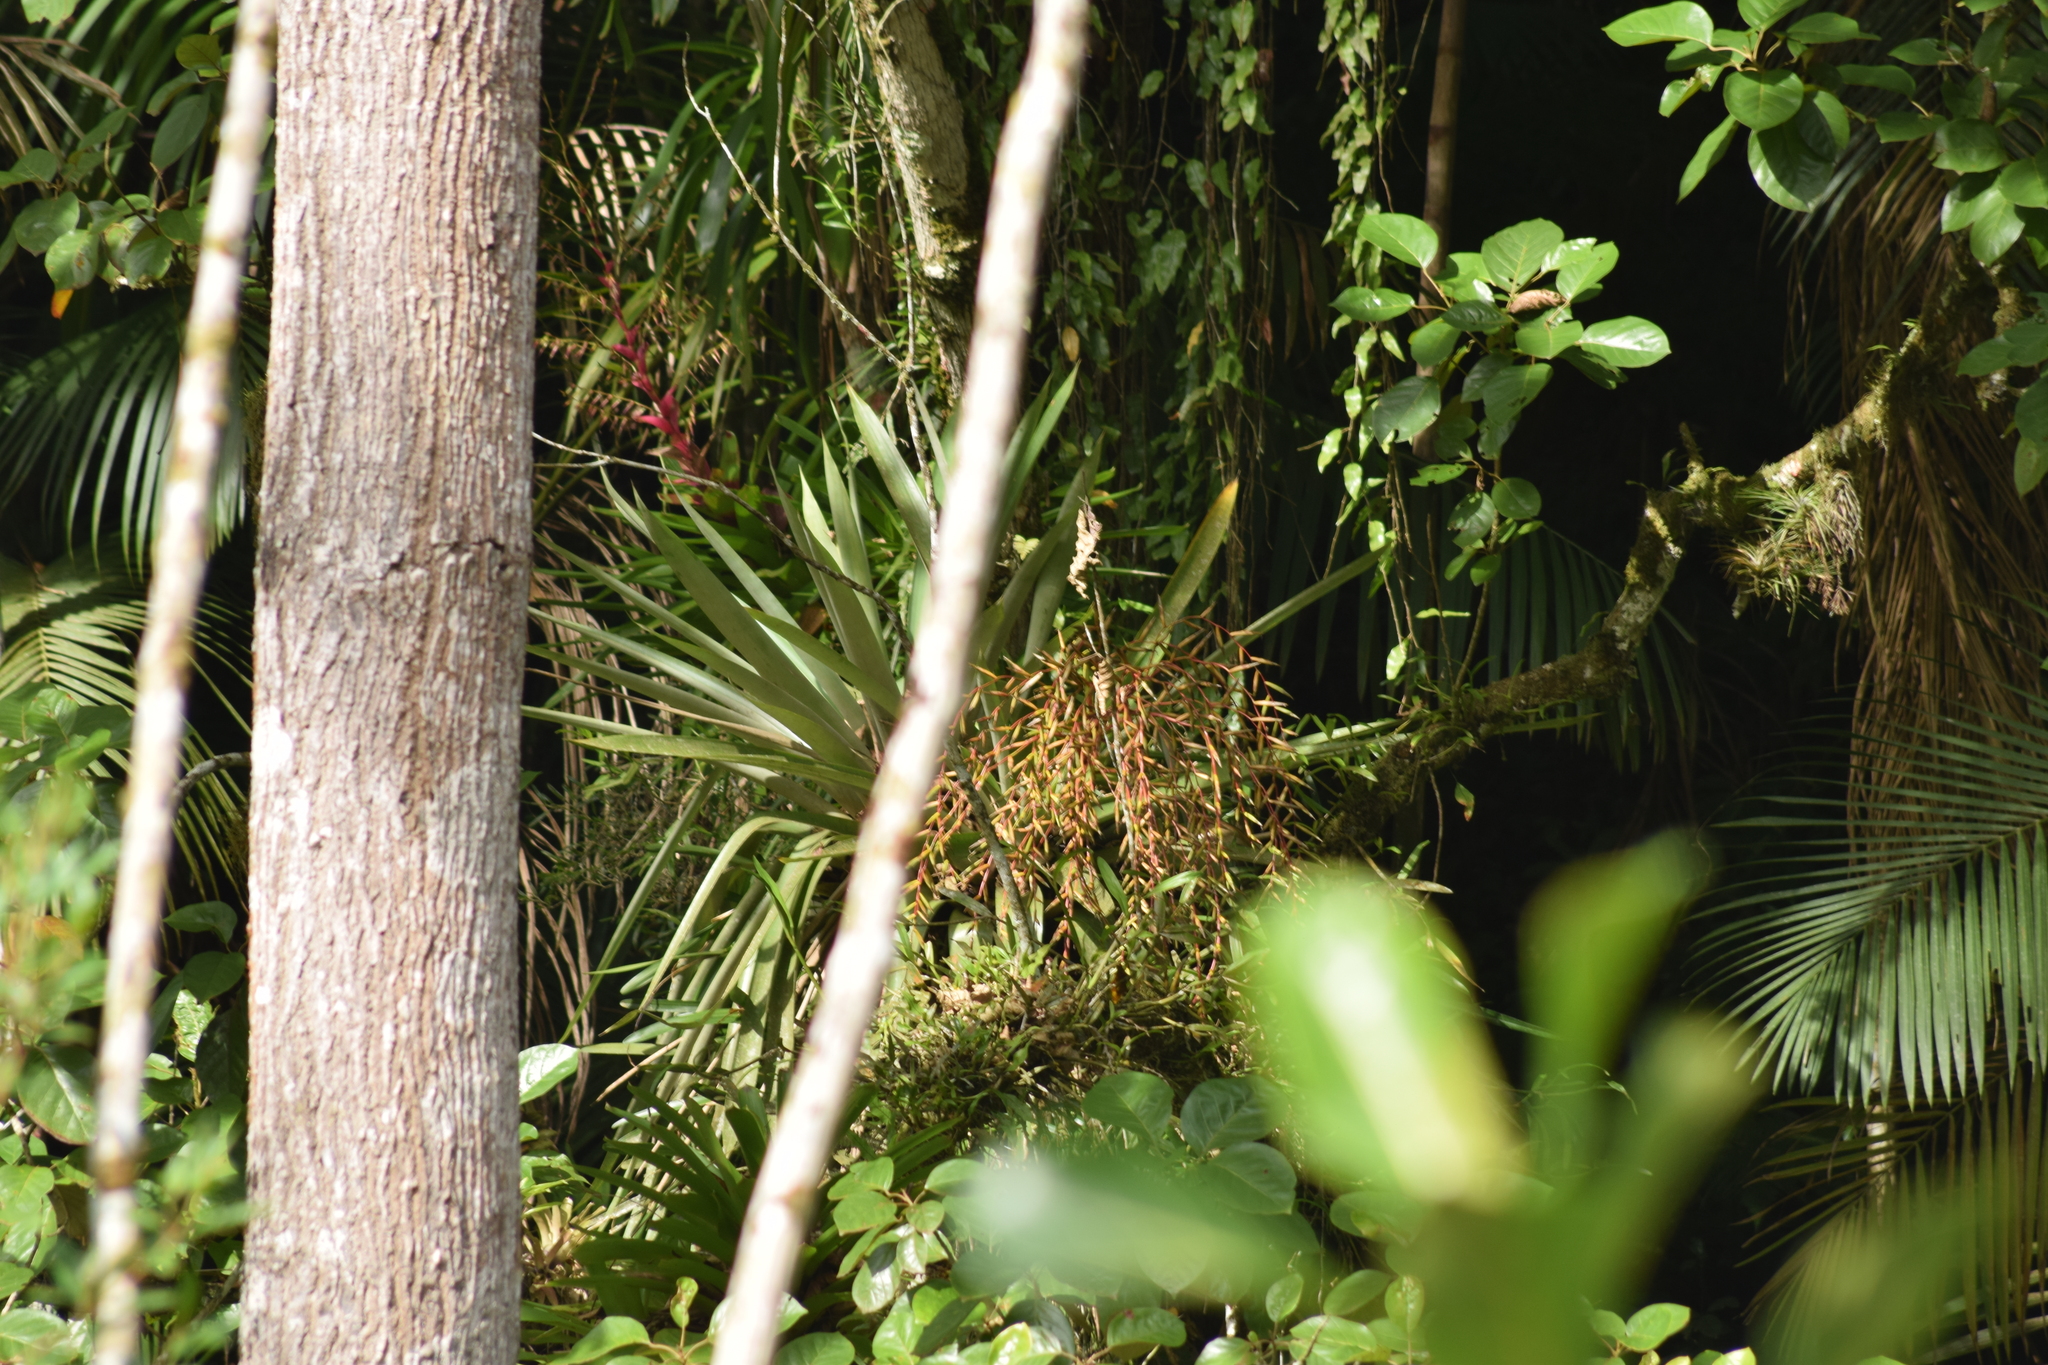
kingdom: Plantae
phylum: Tracheophyta
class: Liliopsida
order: Poales
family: Bromeliaceae
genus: Vriesea
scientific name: Vriesea paratiensis
